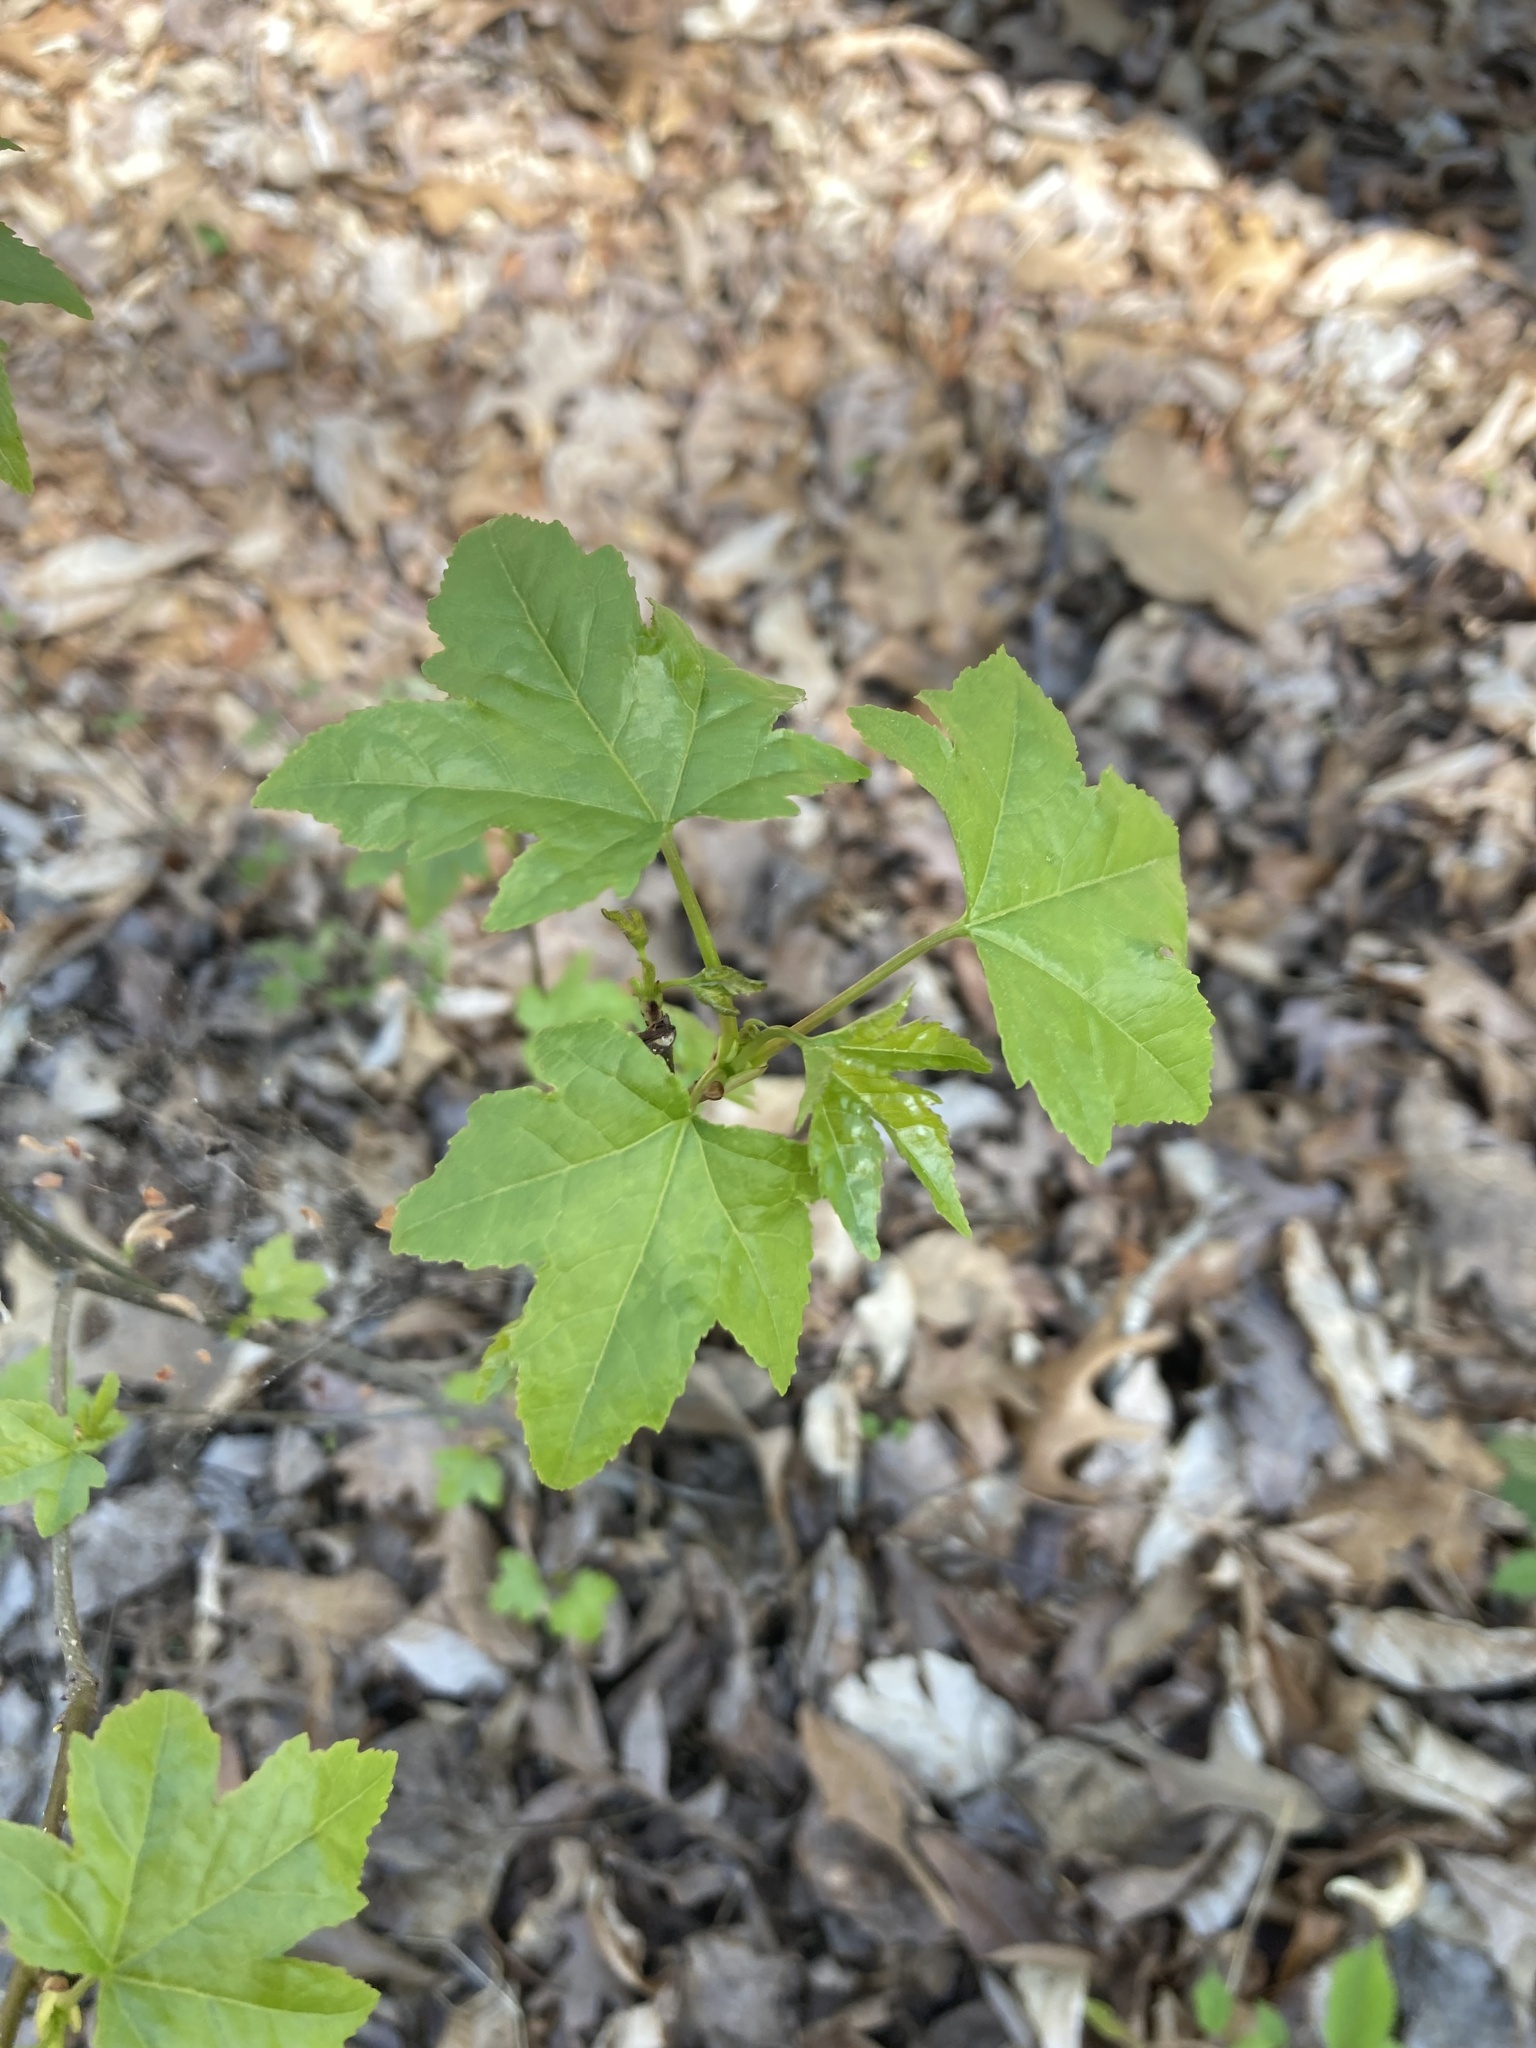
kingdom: Plantae
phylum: Tracheophyta
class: Magnoliopsida
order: Saxifragales
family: Altingiaceae
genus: Liquidambar
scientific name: Liquidambar styraciflua
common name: Sweet gum
